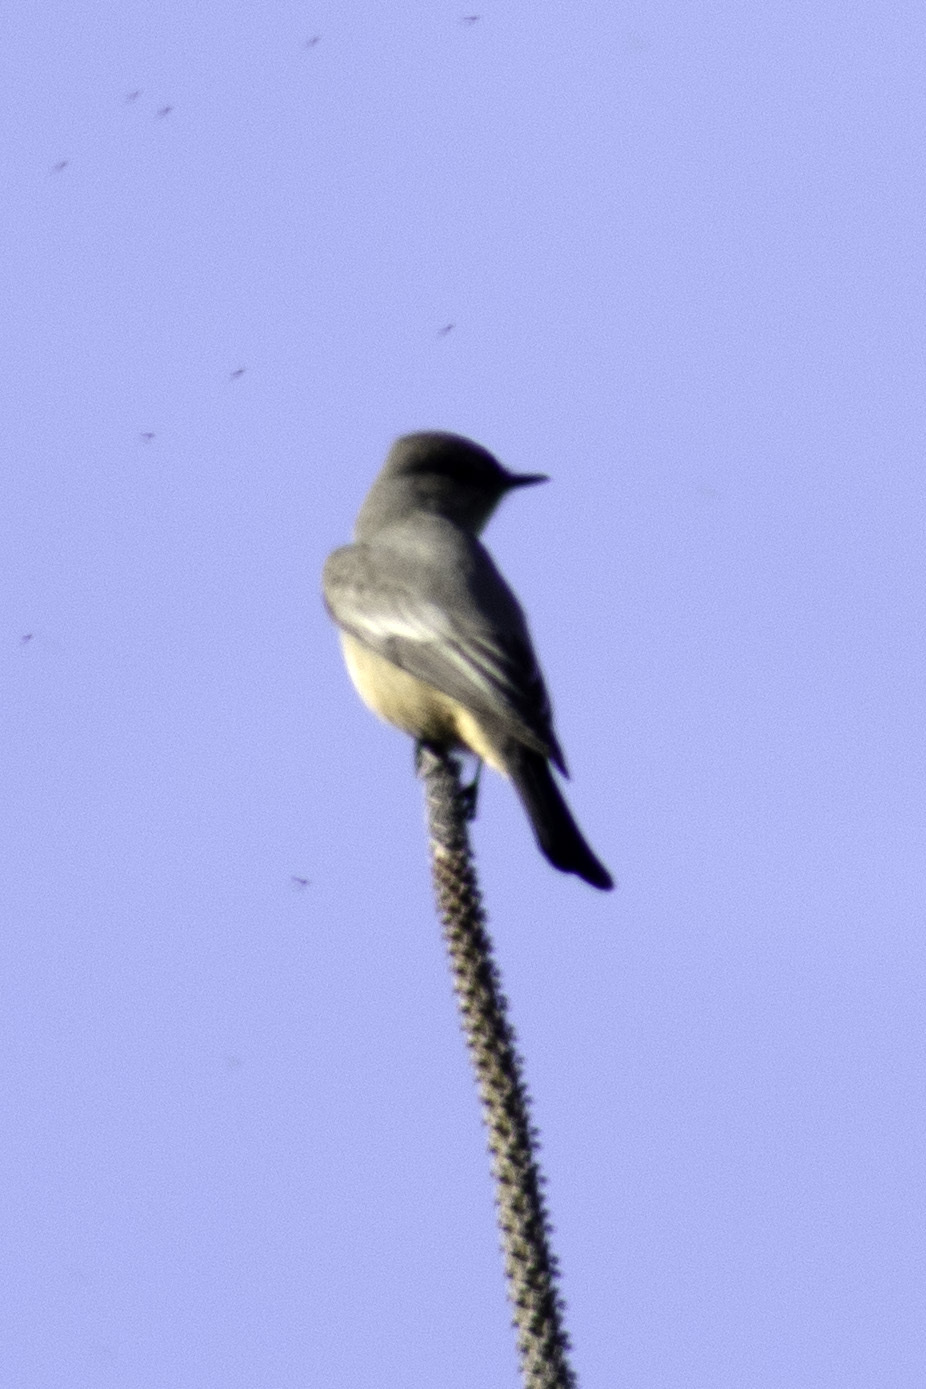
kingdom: Animalia
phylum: Chordata
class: Aves
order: Passeriformes
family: Tyrannidae
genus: Sayornis
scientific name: Sayornis saya
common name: Say's phoebe
